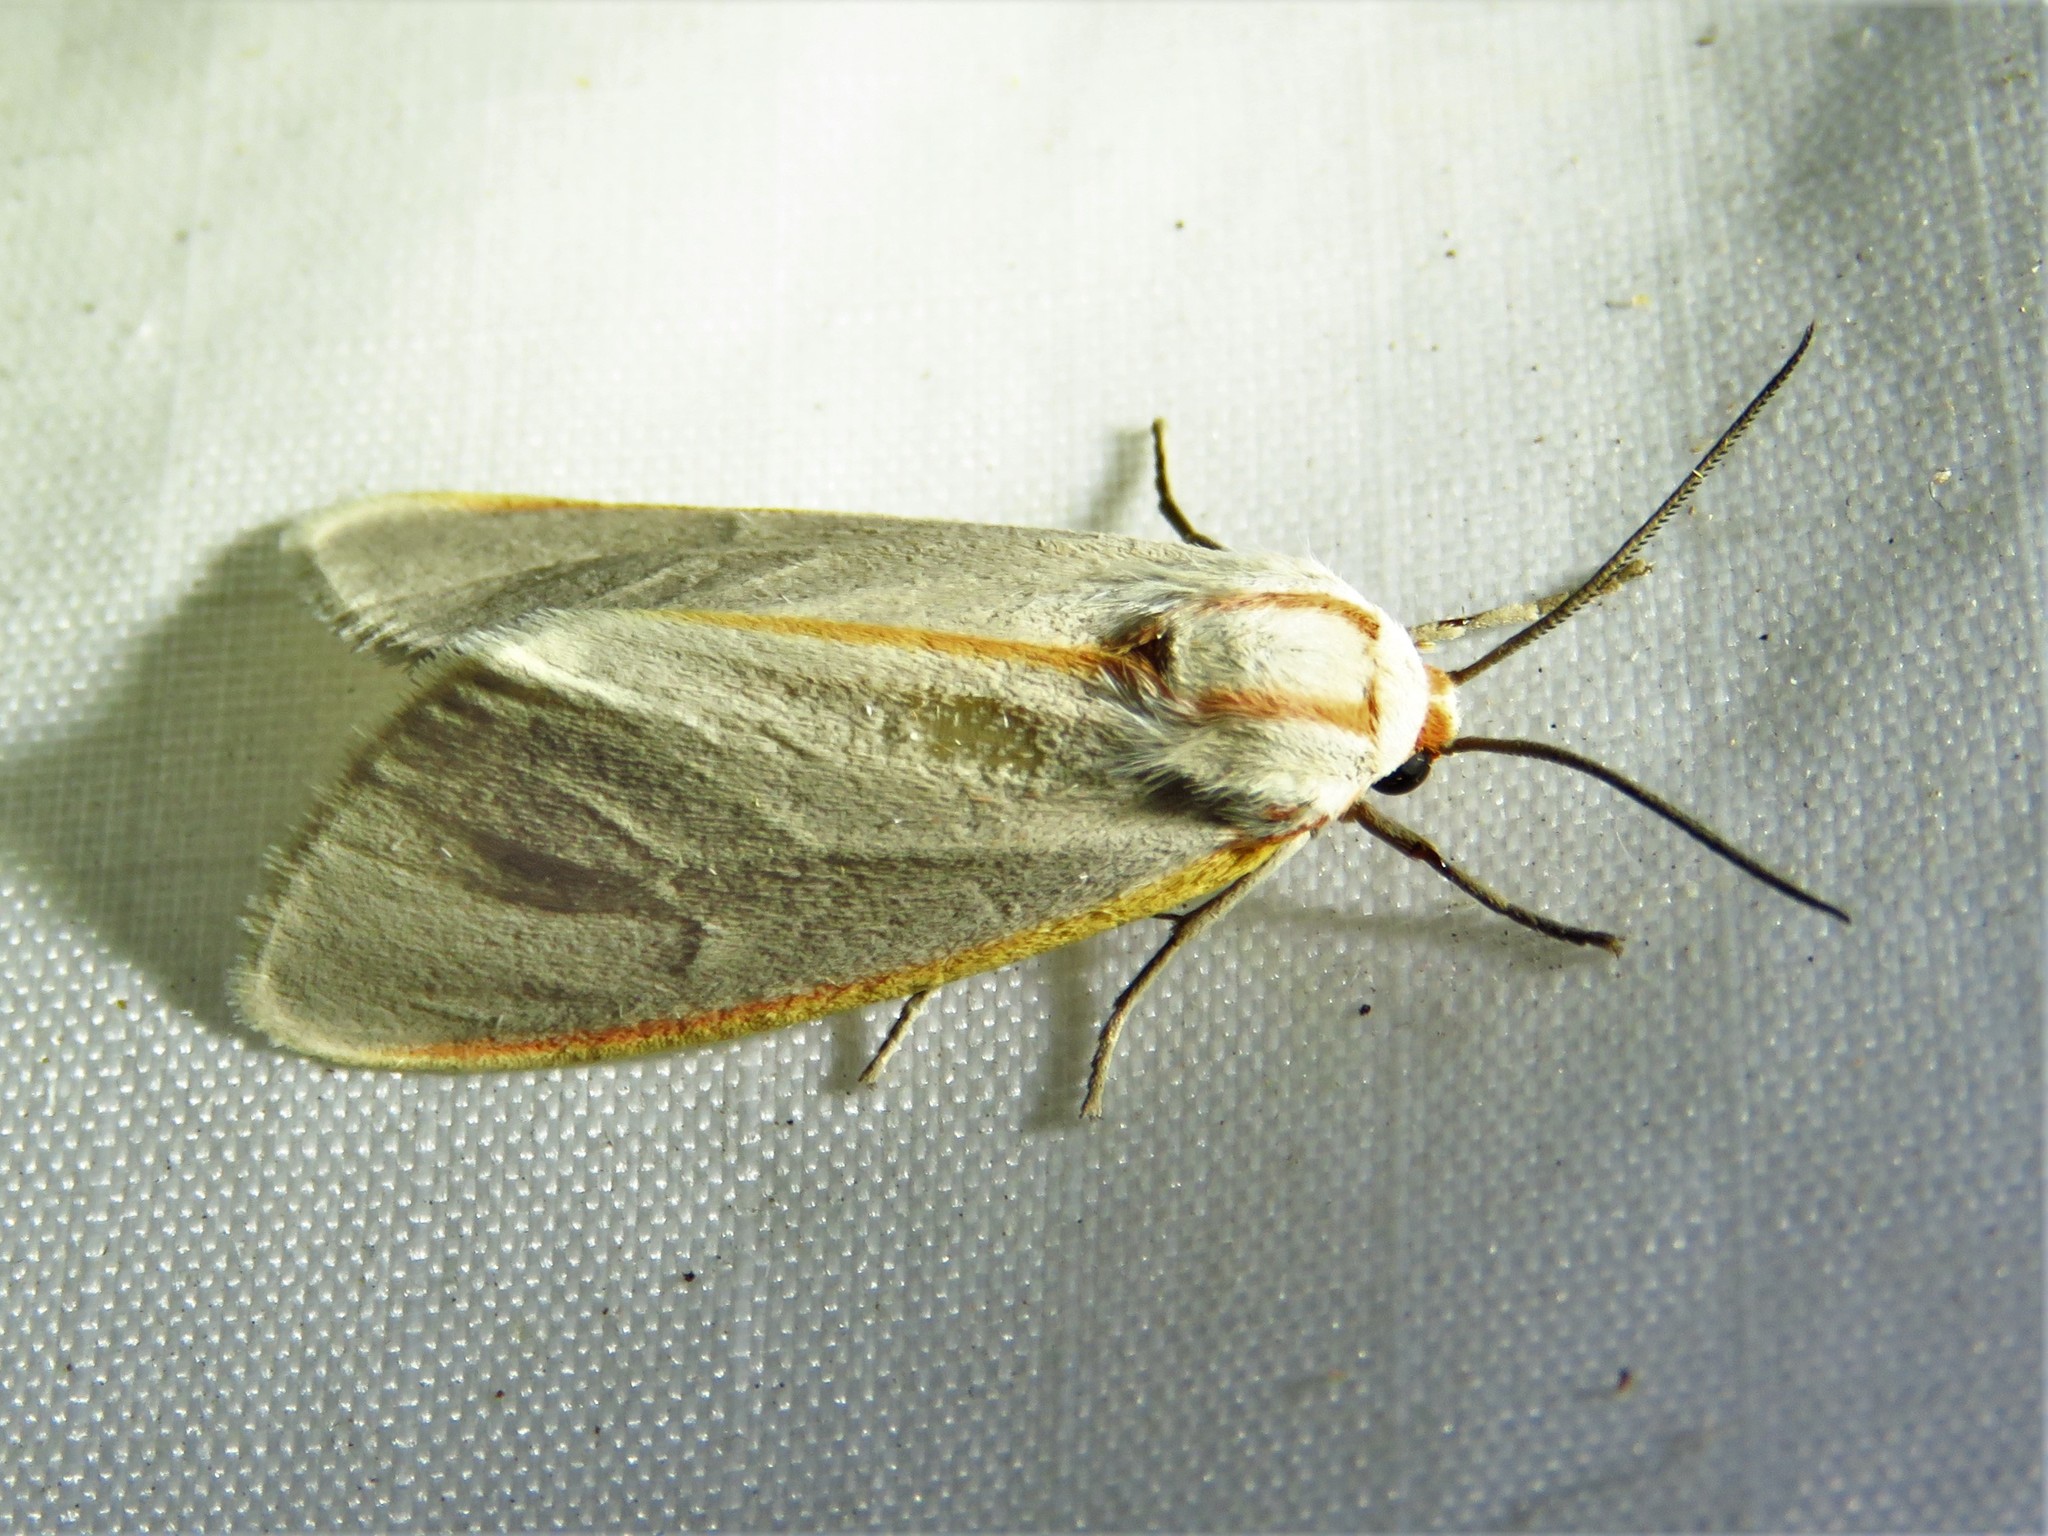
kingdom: Animalia
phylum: Arthropoda
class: Insecta
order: Lepidoptera
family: Erebidae
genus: Pygarctia
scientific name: Pygarctia abdominalis
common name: Yellow-edged pygarctia moth
